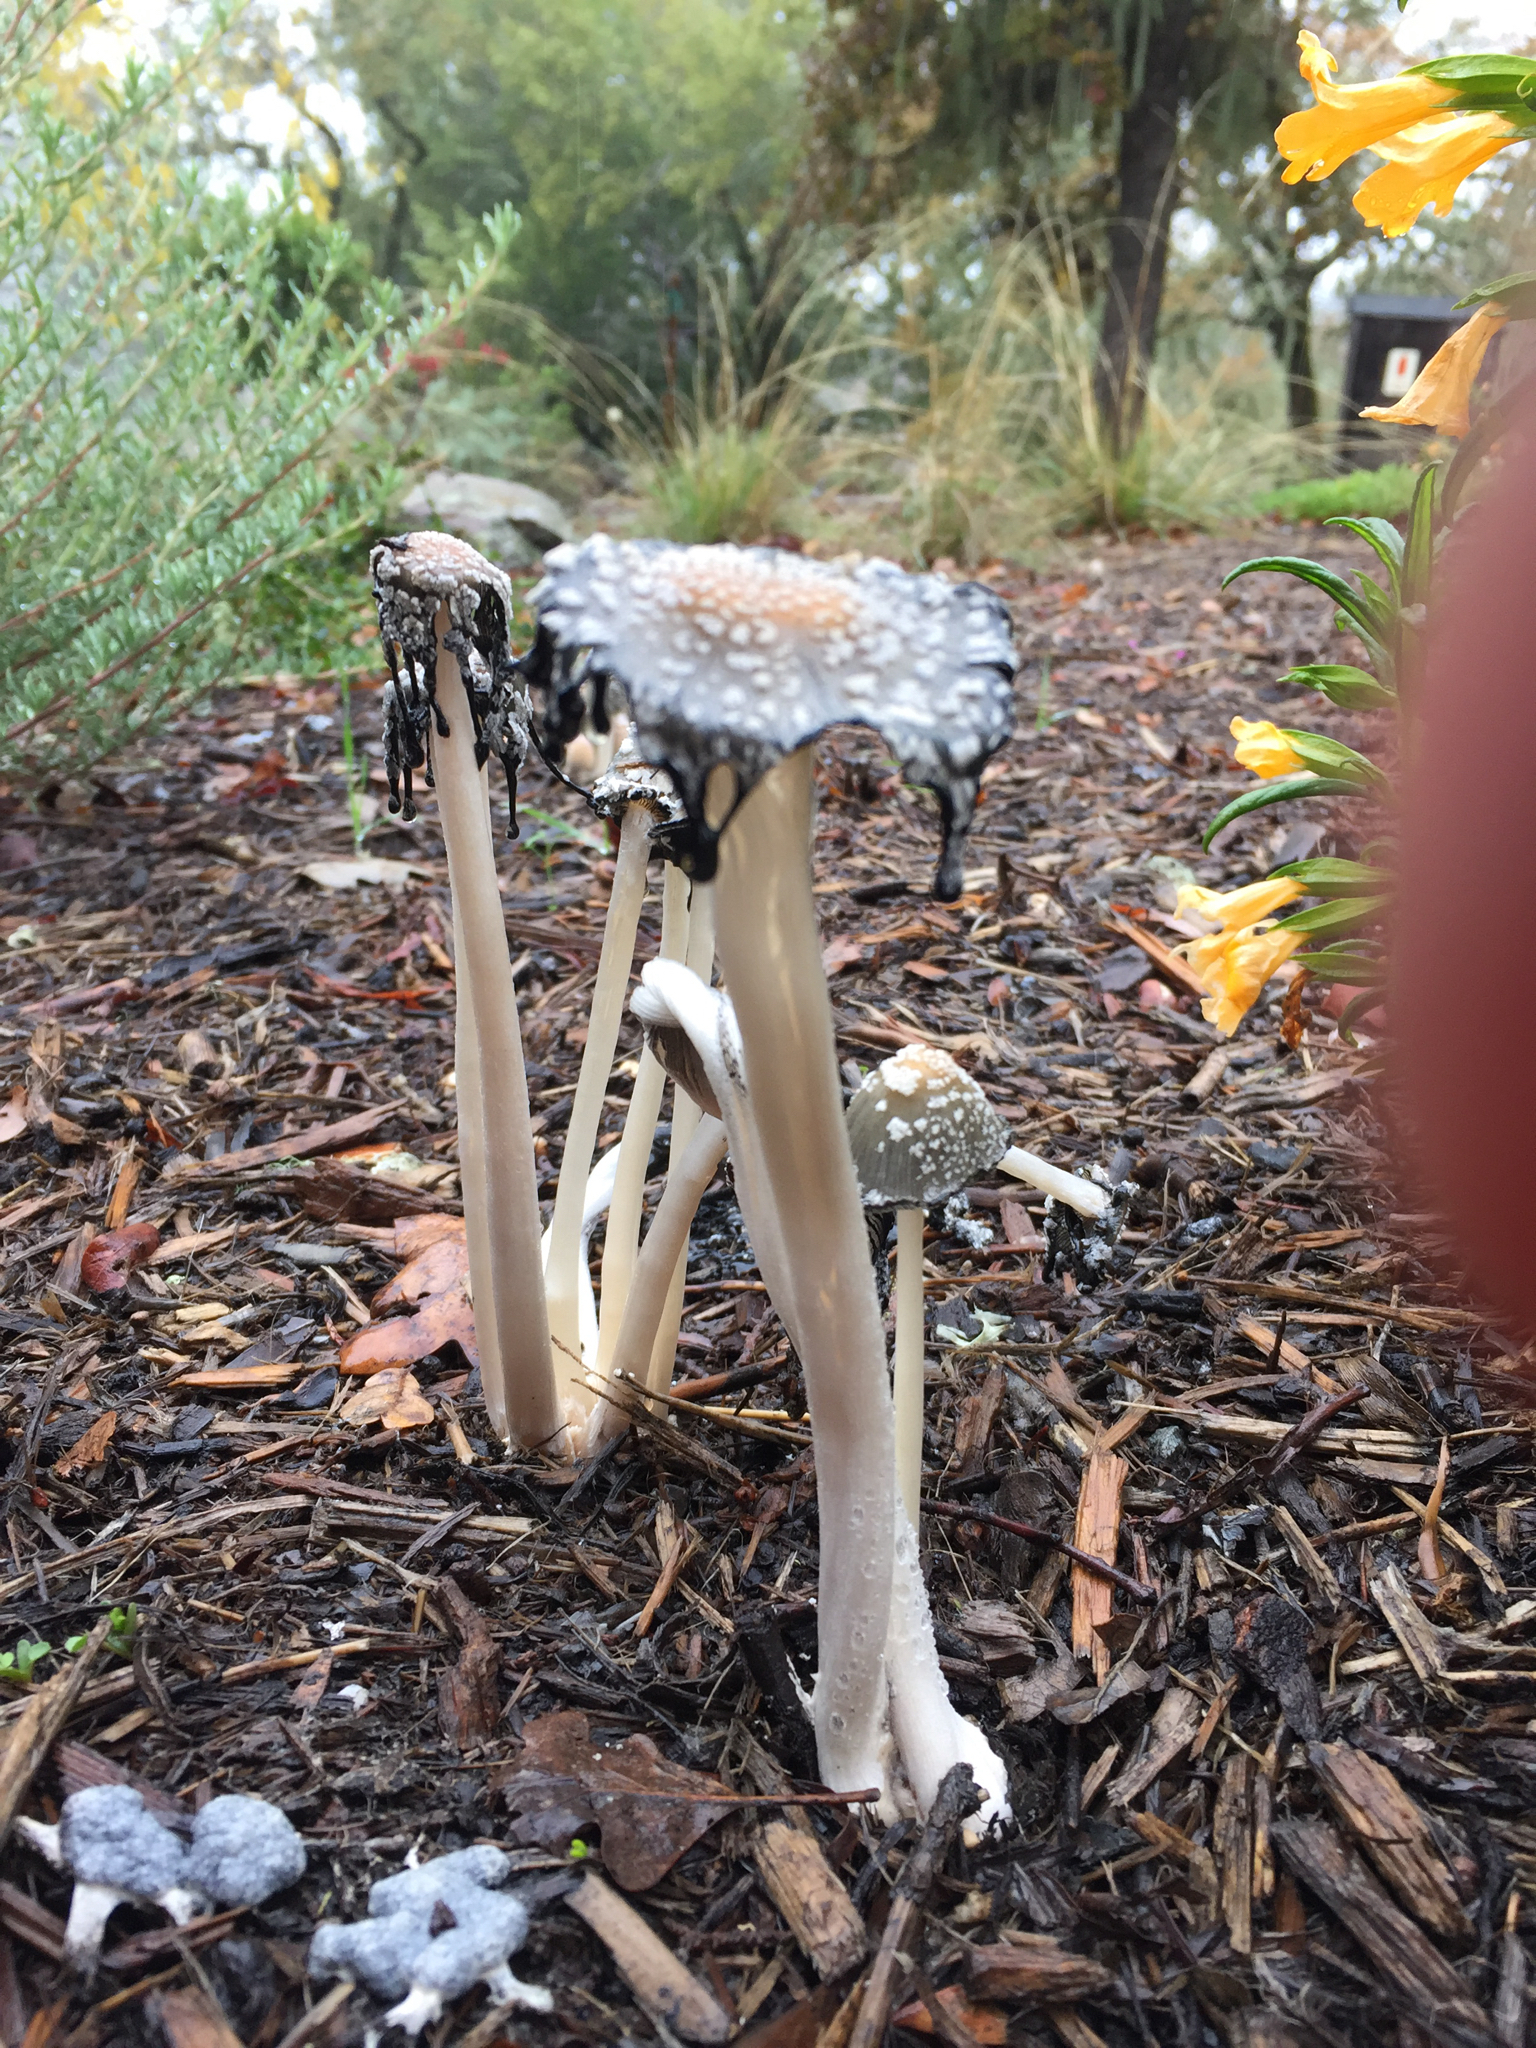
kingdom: Fungi
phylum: Basidiomycota
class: Agaricomycetes
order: Agaricales
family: Psathyrellaceae
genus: Coprinellus
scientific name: Coprinellus flocculosus
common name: Flocculose inkcap
